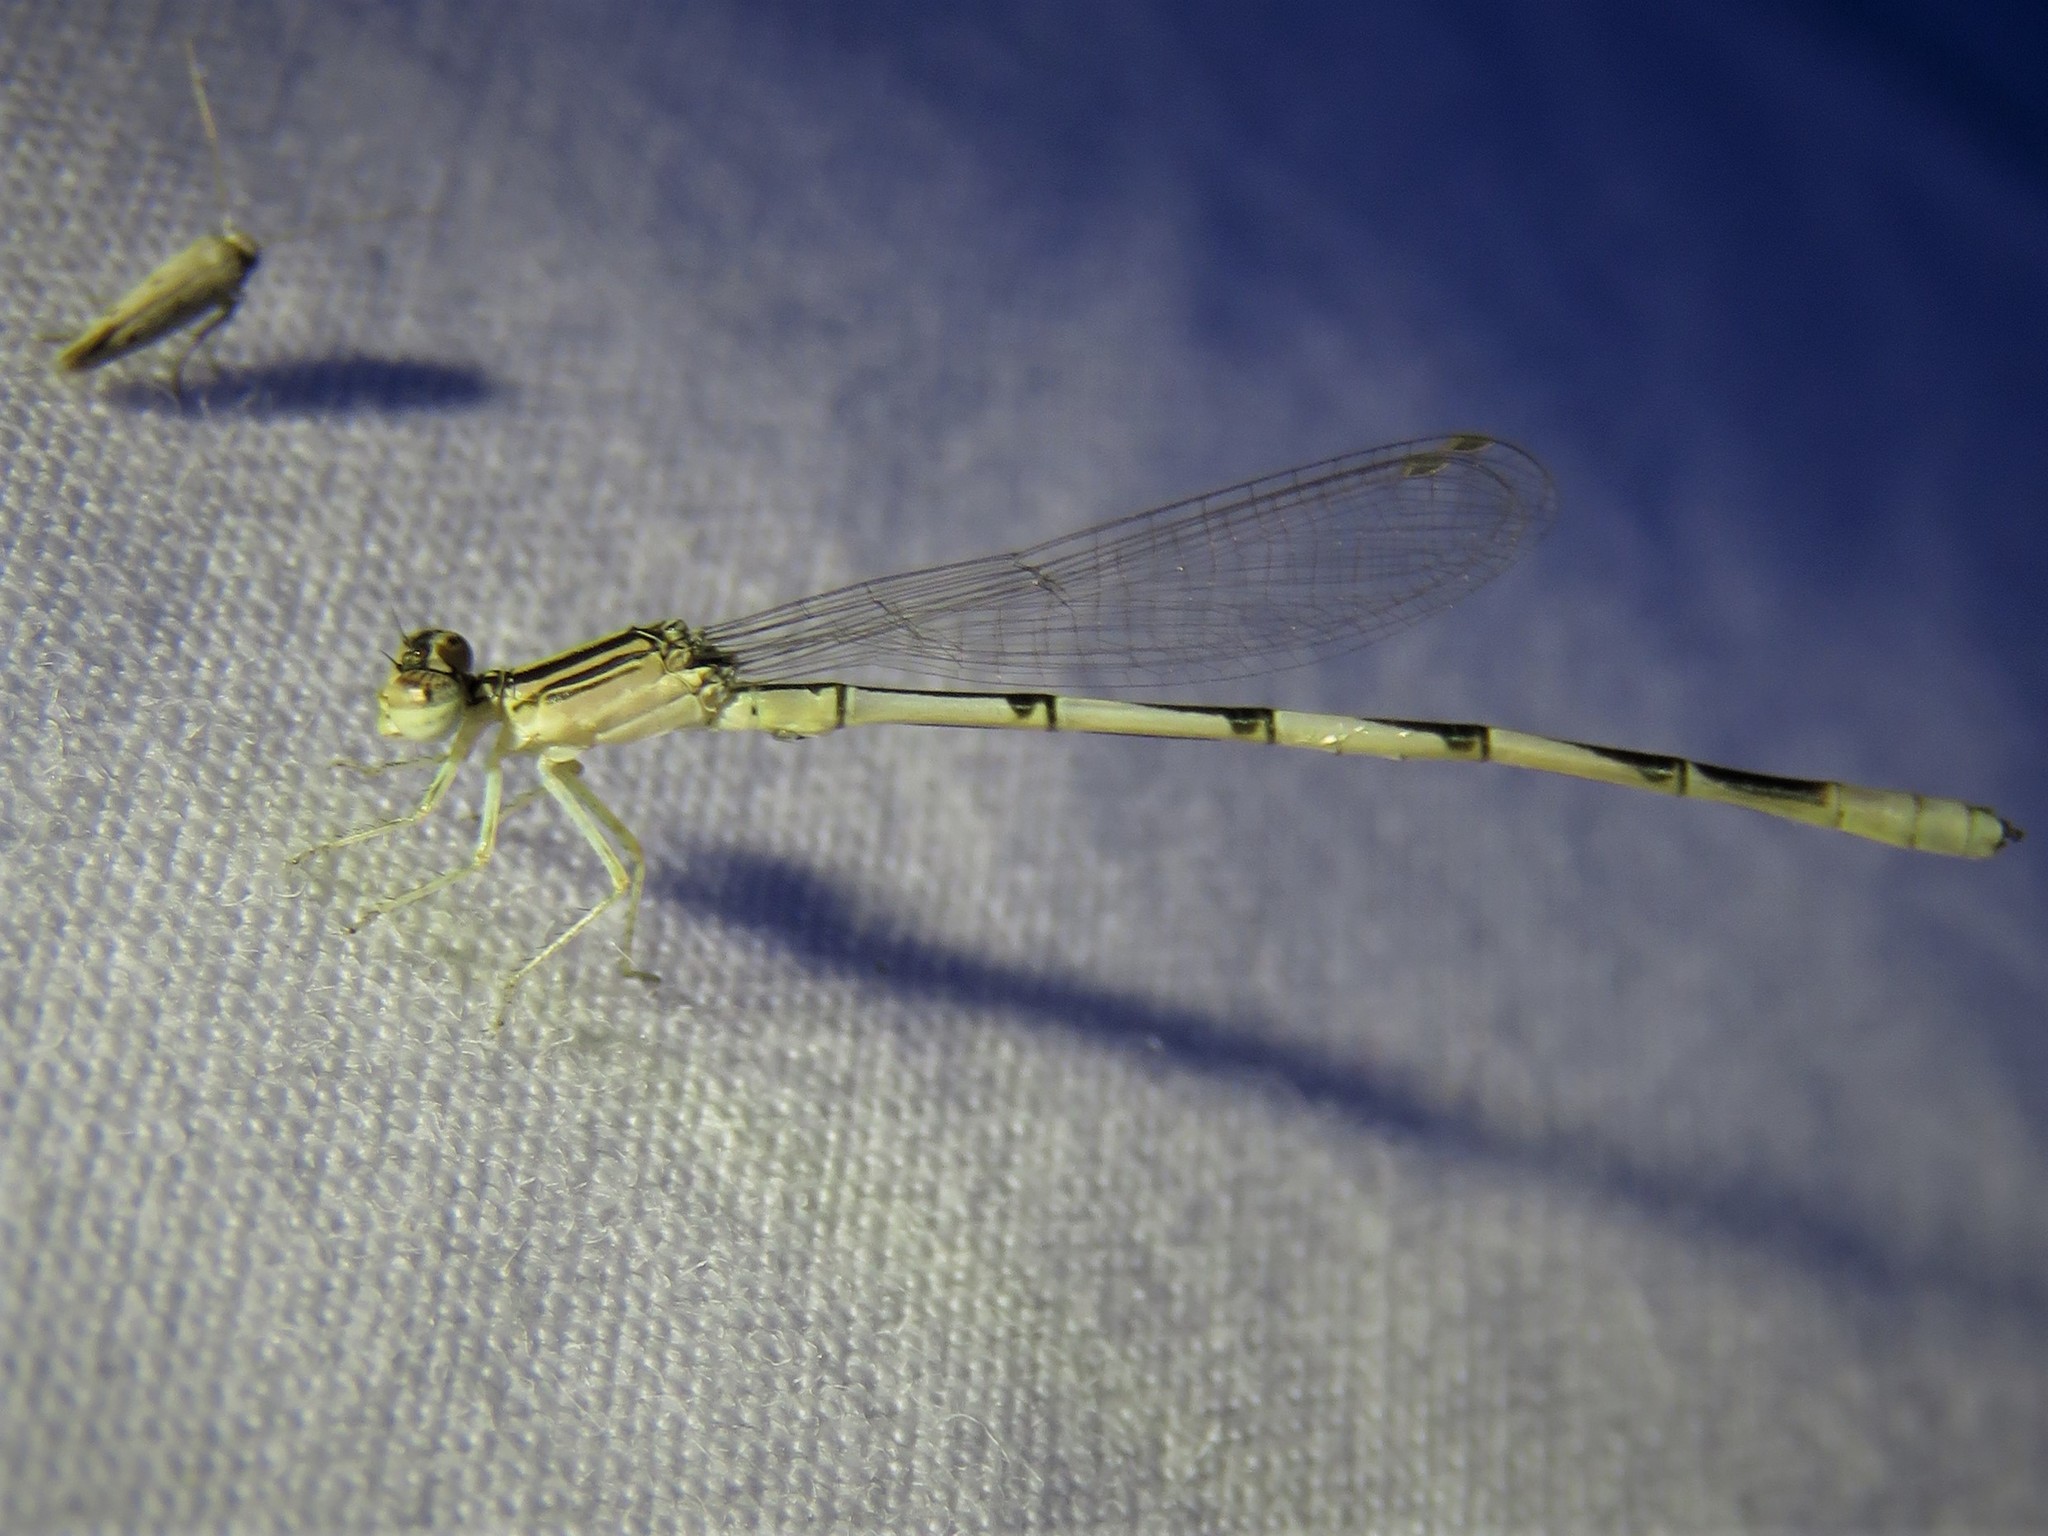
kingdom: Animalia
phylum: Arthropoda
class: Insecta
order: Odonata
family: Coenagrionidae
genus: Enallagma
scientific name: Enallagma basidens
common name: Double-striped bluet
